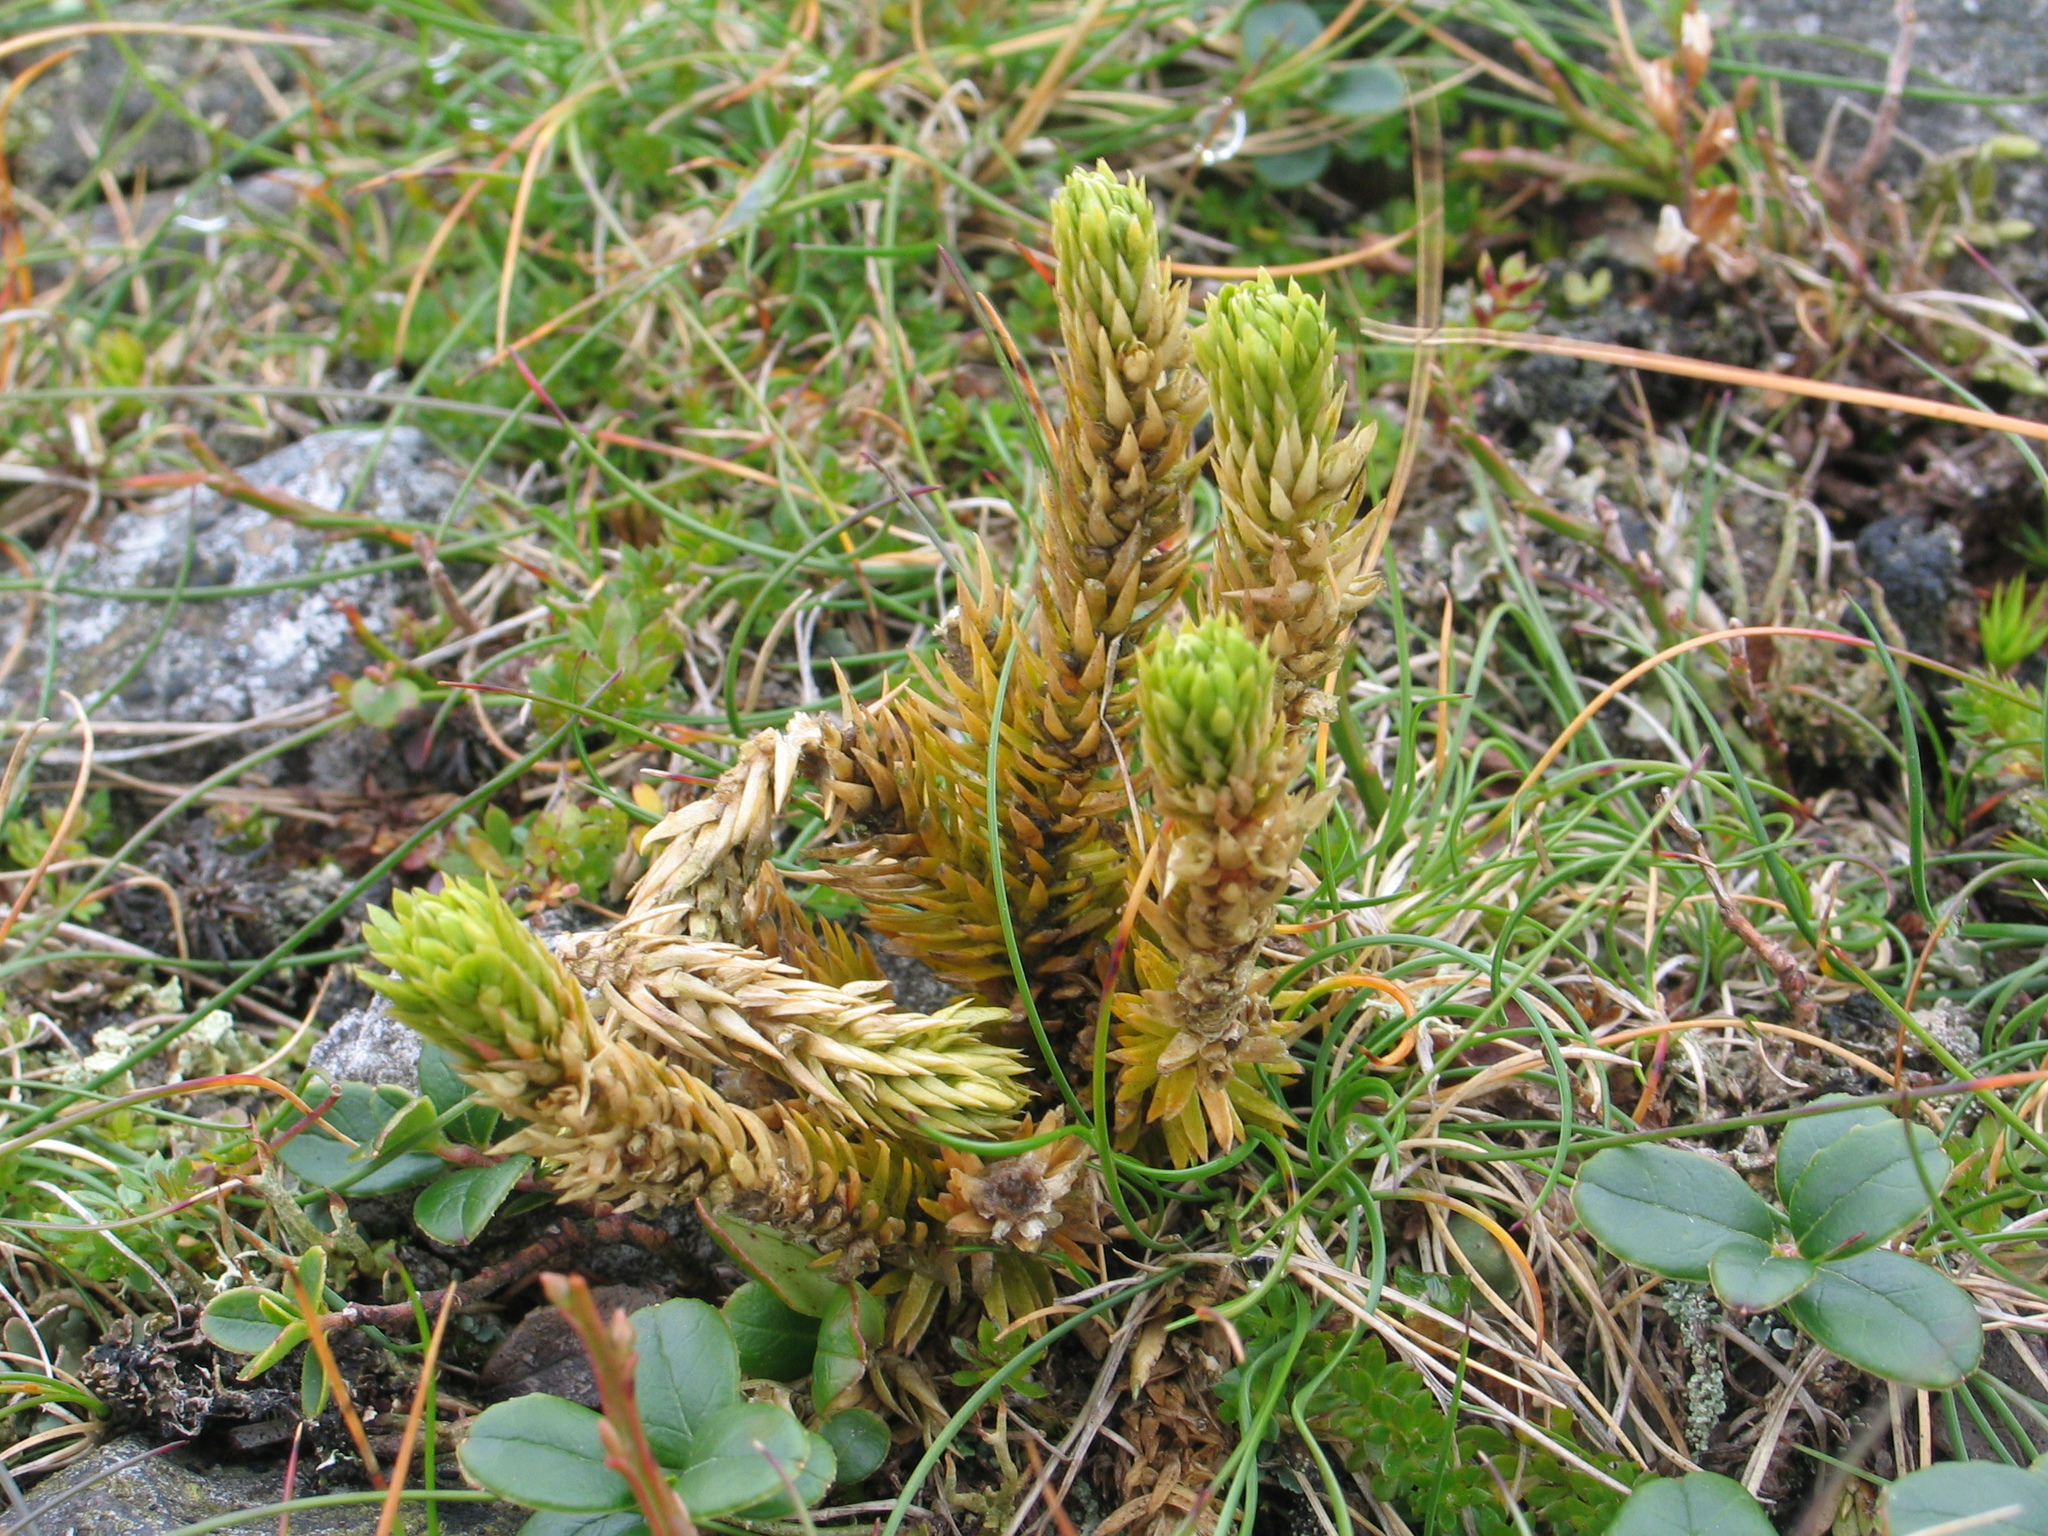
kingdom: Plantae
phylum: Tracheophyta
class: Lycopodiopsida
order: Lycopodiales
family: Lycopodiaceae
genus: Huperzia
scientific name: Huperzia selago
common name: Northern firmoss
